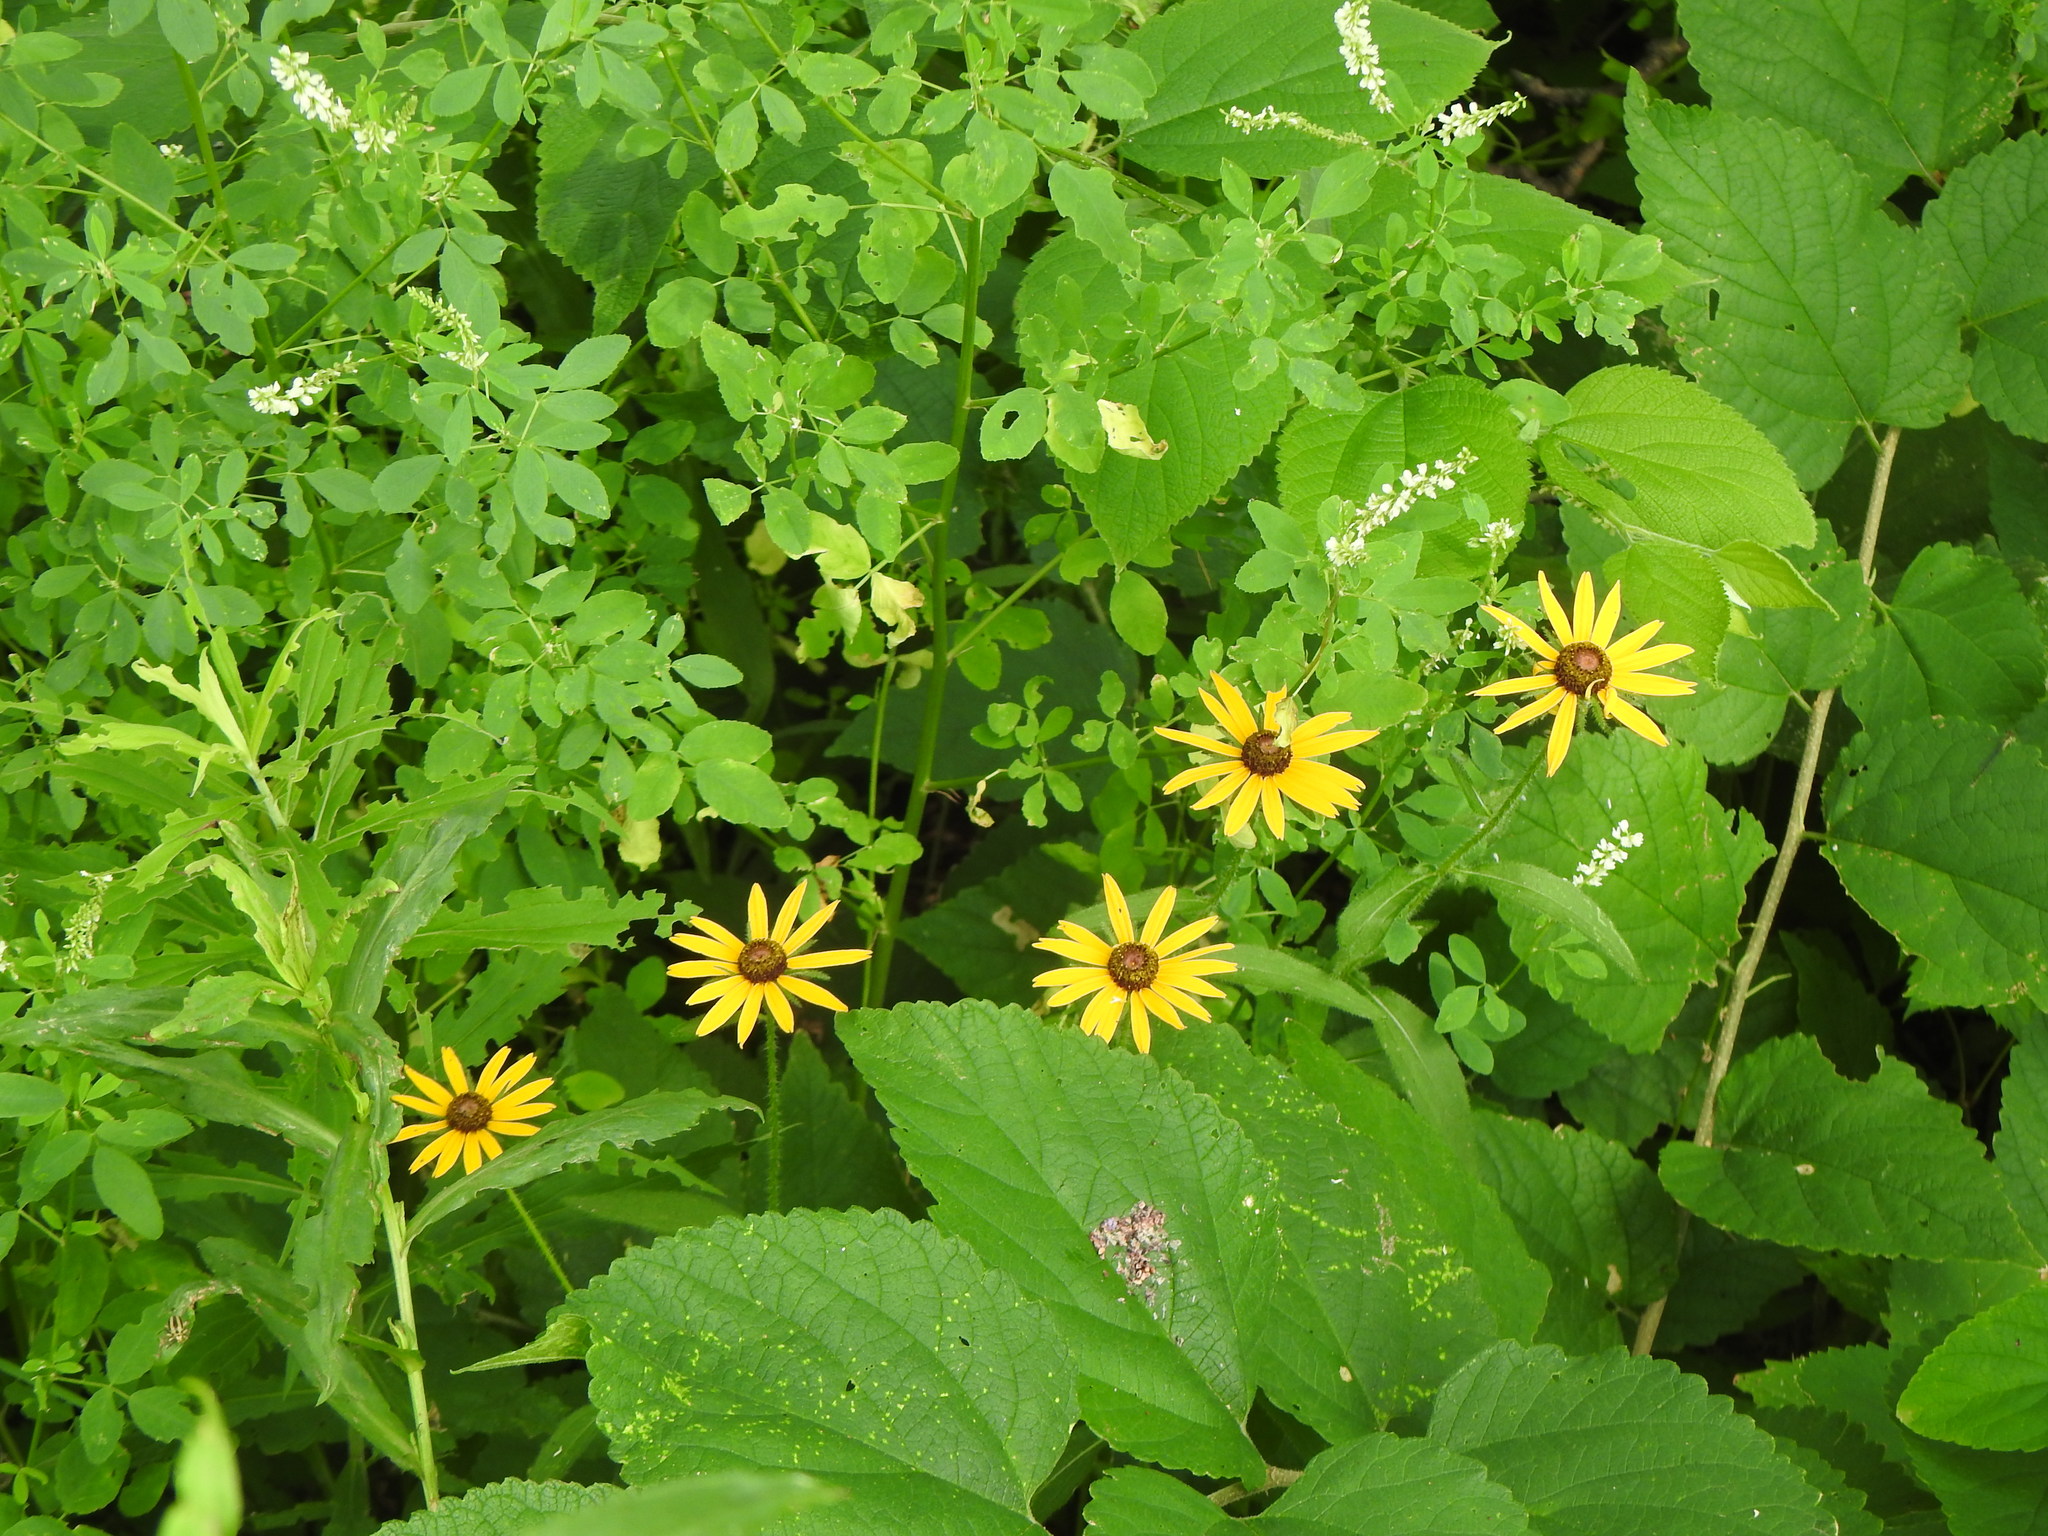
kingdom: Plantae
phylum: Tracheophyta
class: Magnoliopsida
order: Asterales
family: Asteraceae
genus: Rudbeckia
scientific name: Rudbeckia hirta
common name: Black-eyed-susan
